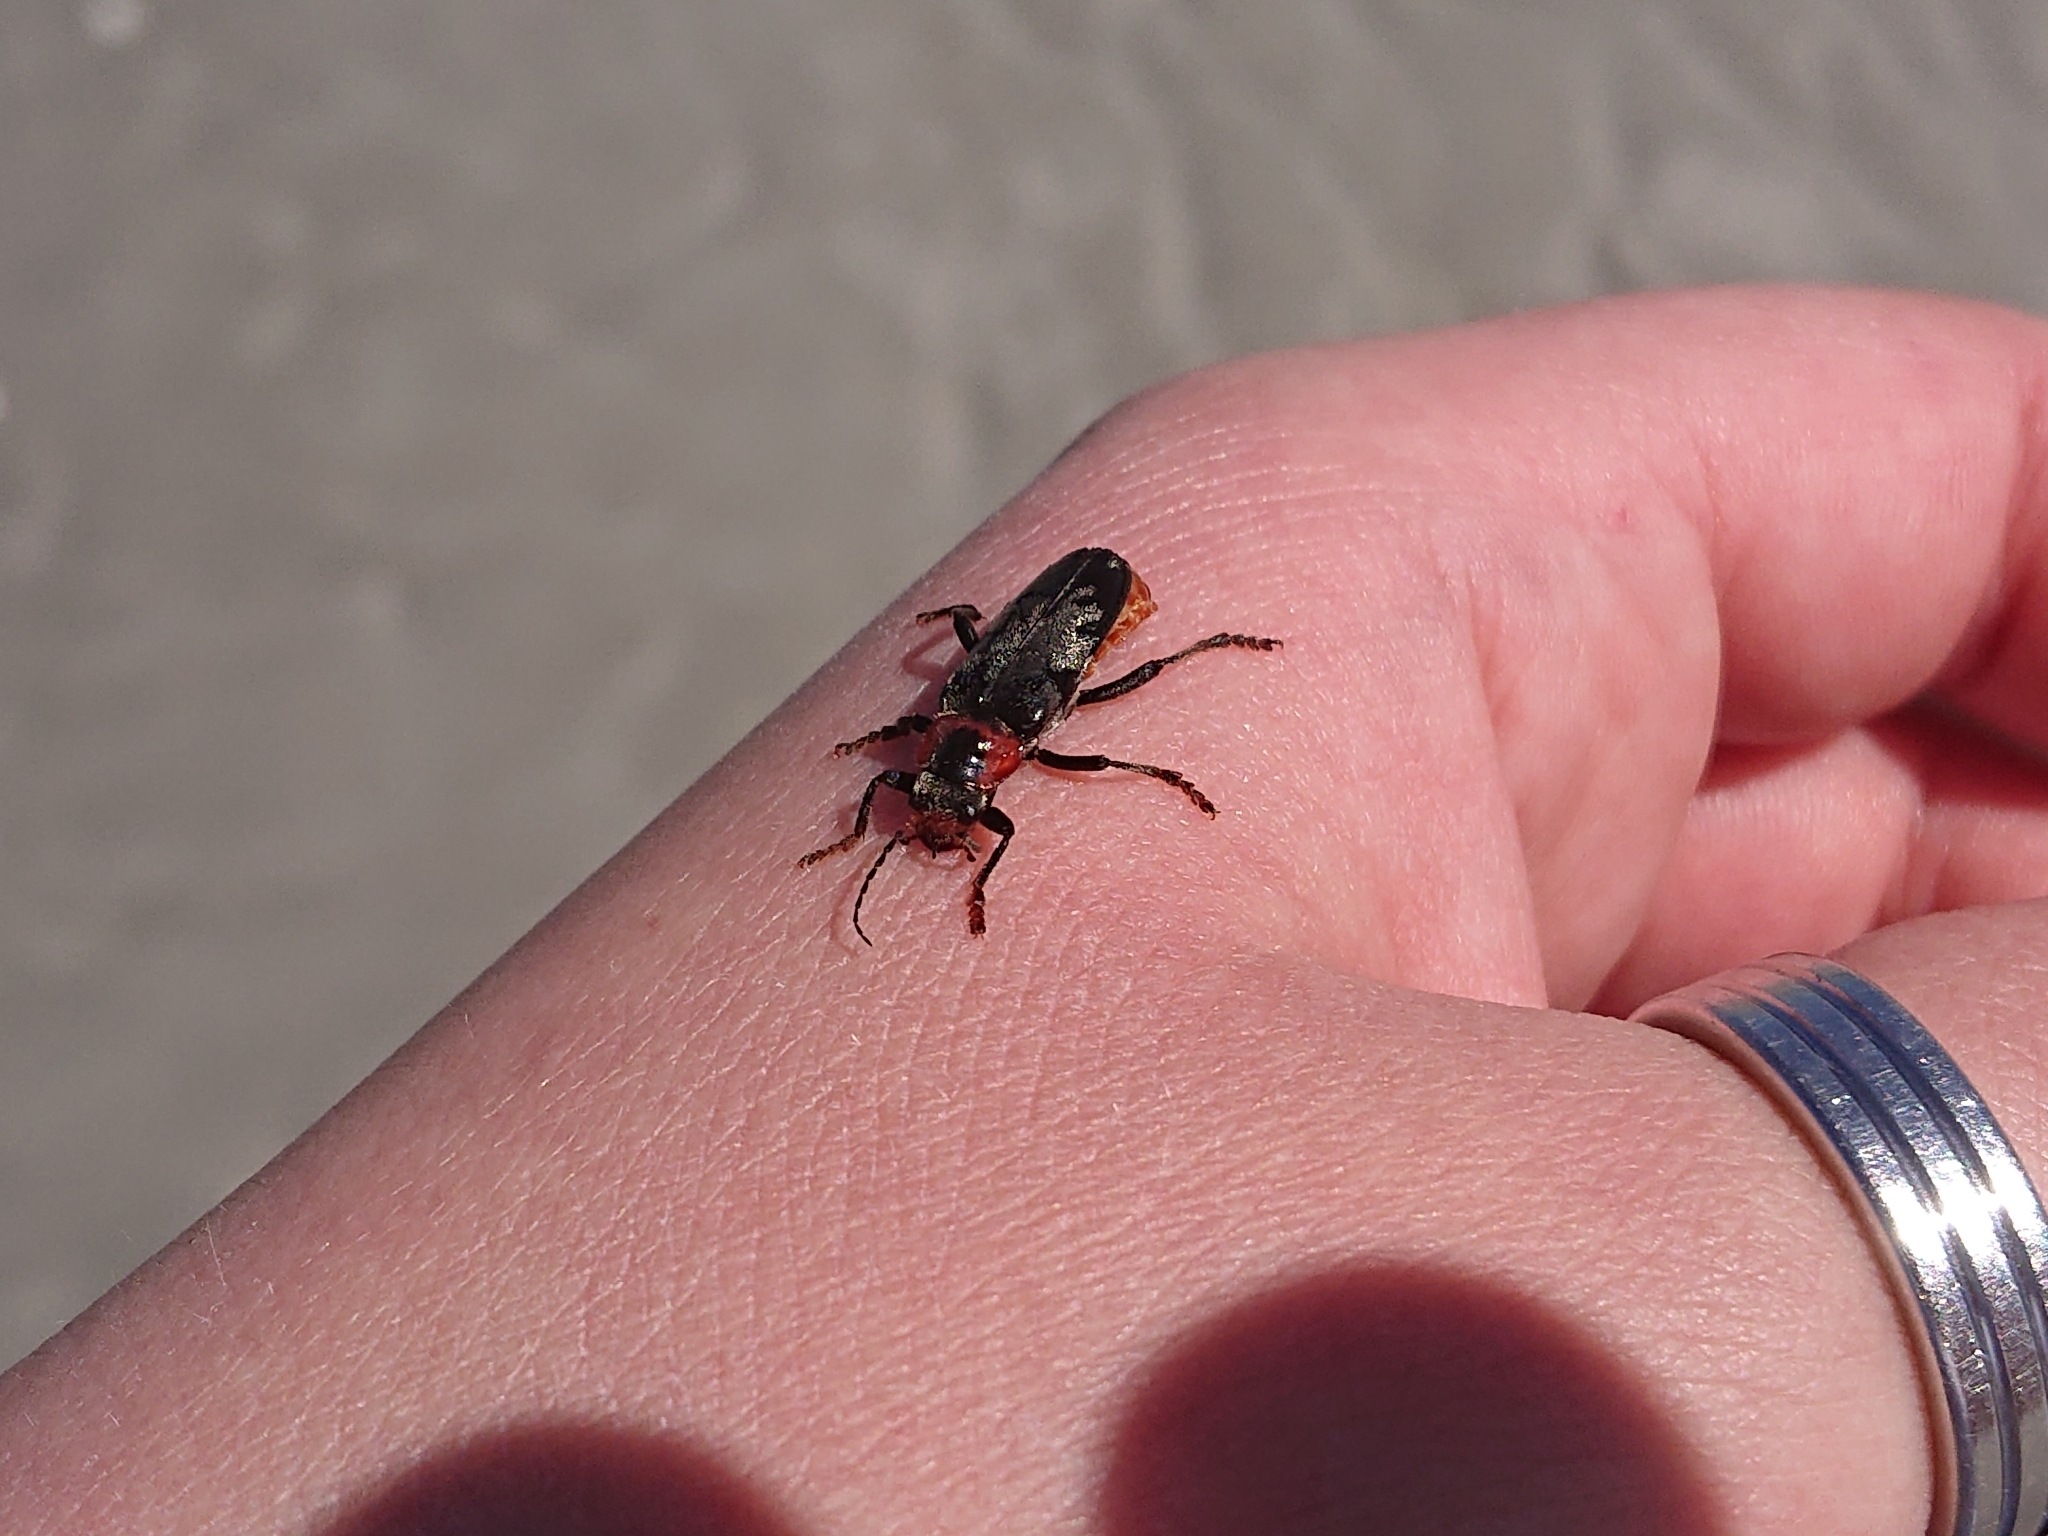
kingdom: Animalia
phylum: Arthropoda
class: Insecta
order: Coleoptera
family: Cantharidae
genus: Cantharis
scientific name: Cantharis fusca
